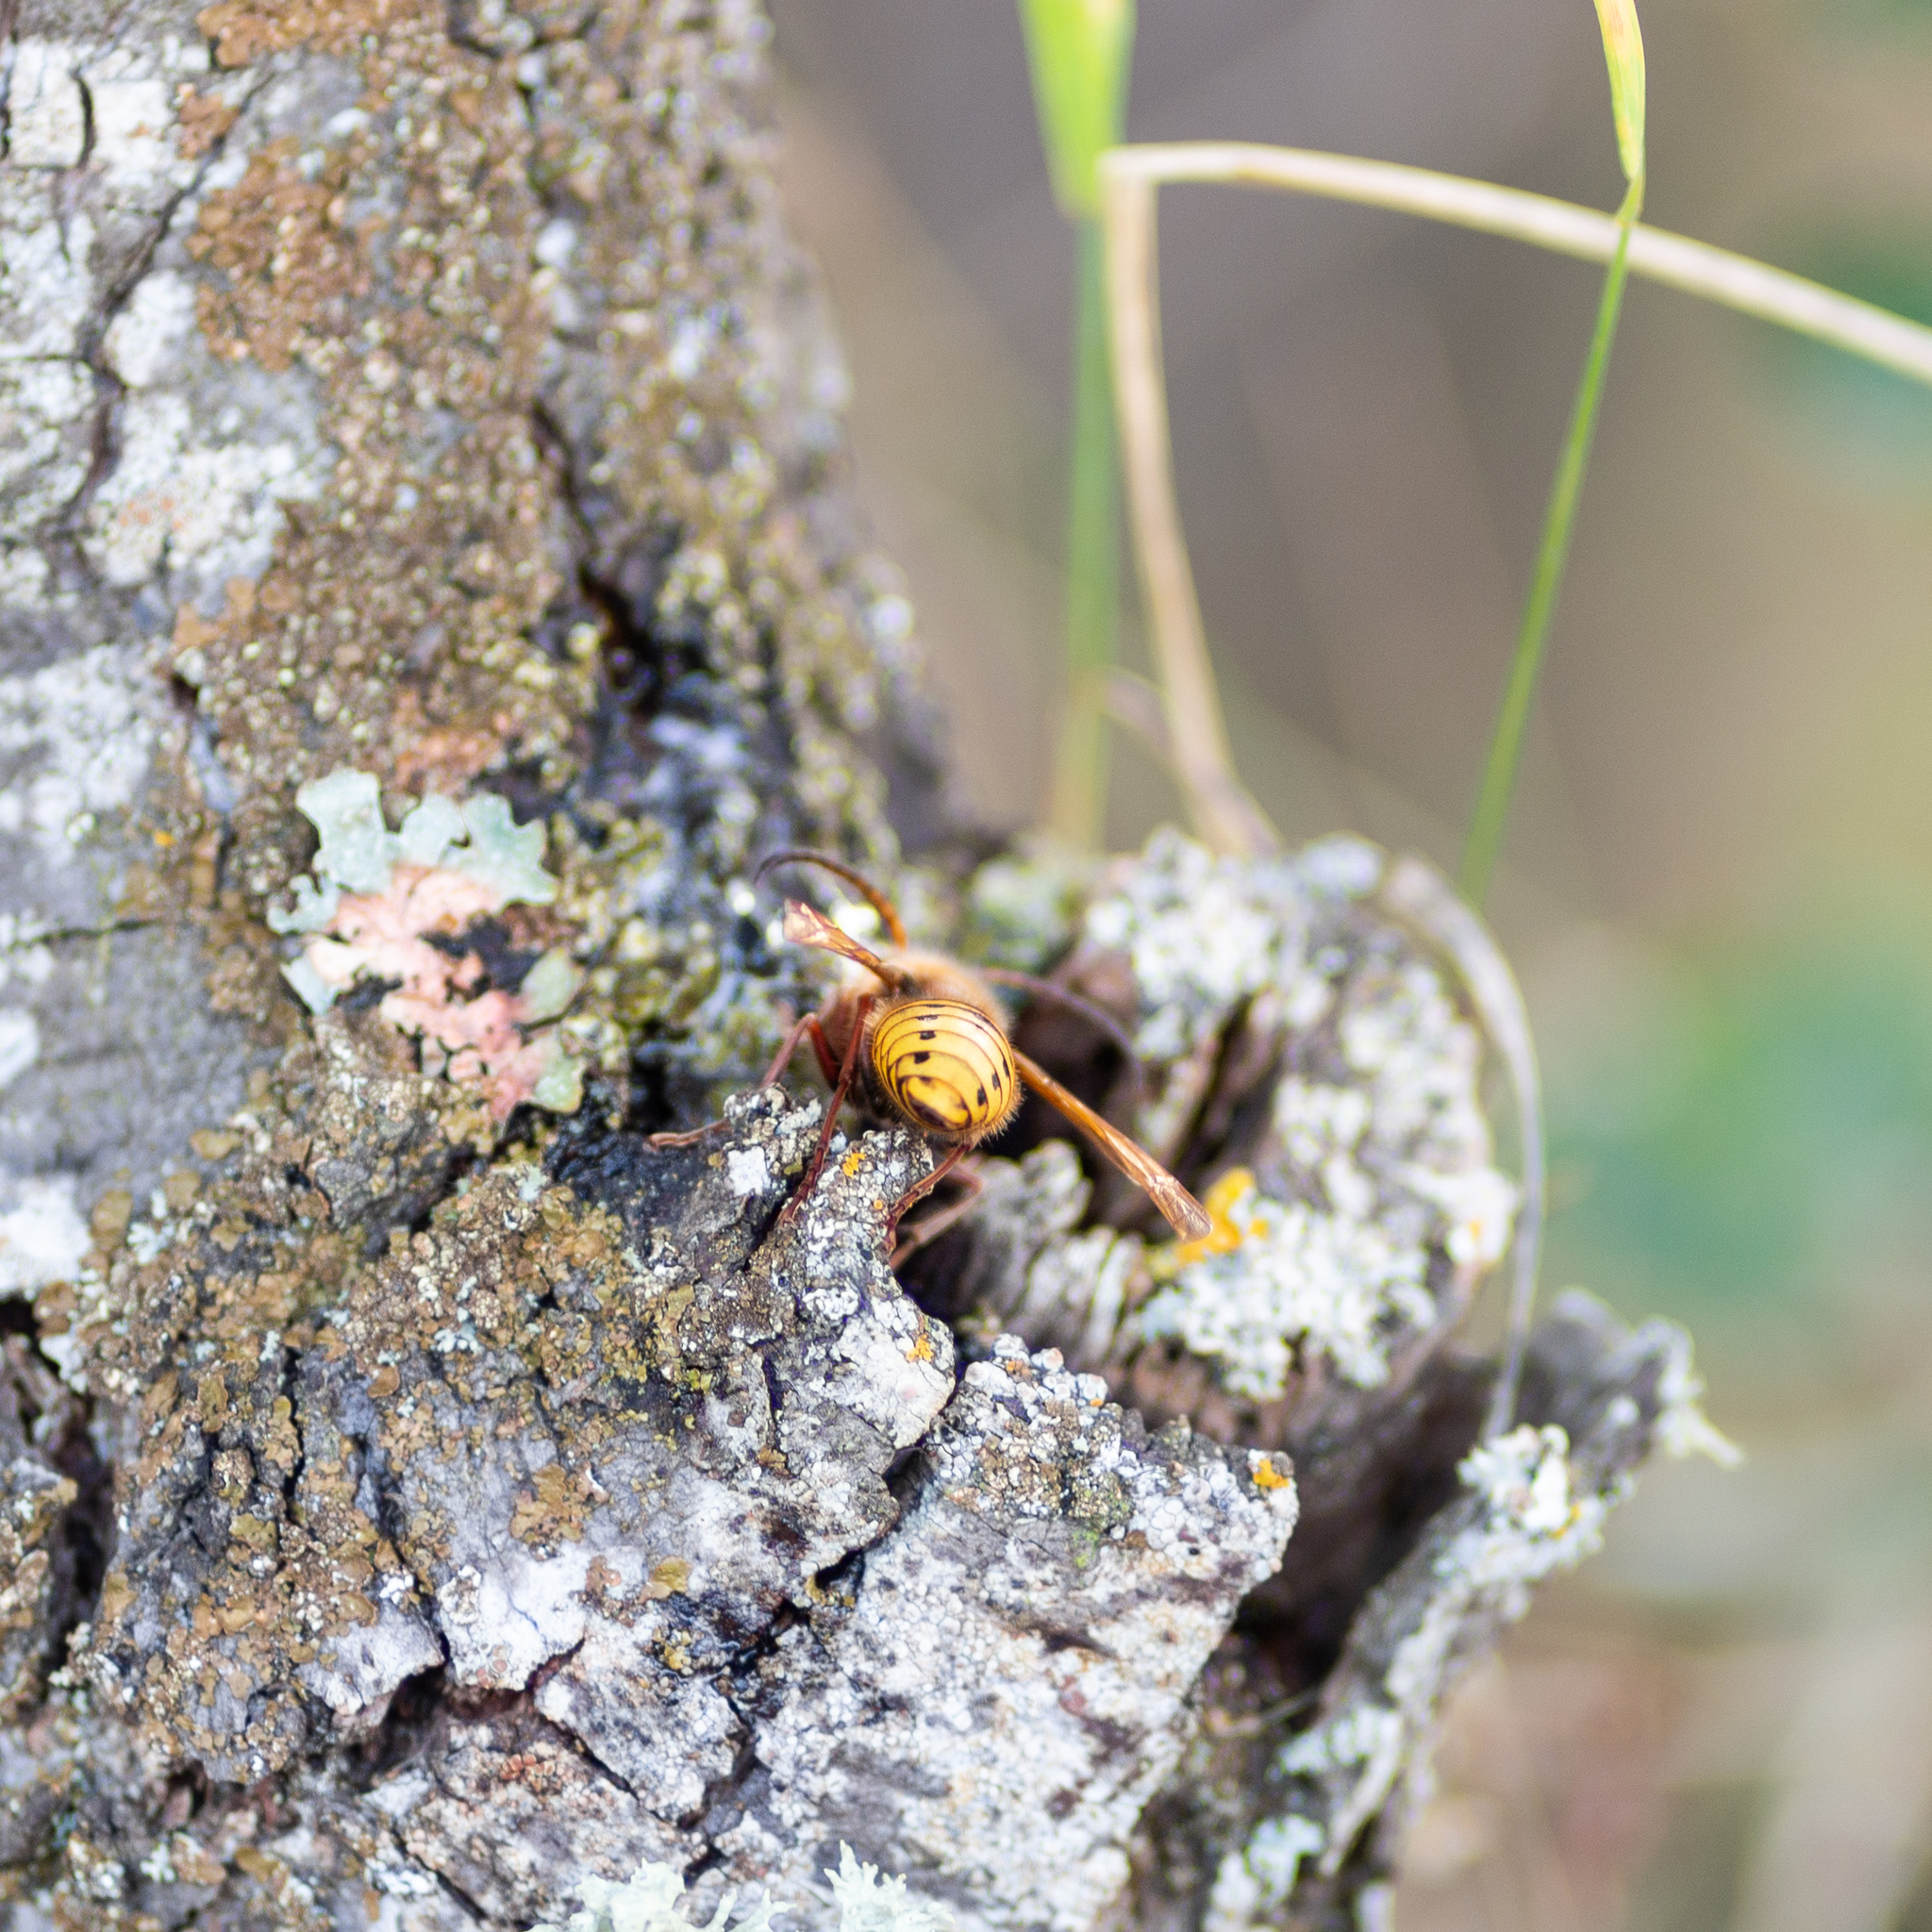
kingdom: Animalia
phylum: Arthropoda
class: Insecta
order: Hymenoptera
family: Vespidae
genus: Vespa
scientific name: Vespa crabro
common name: Hornet
